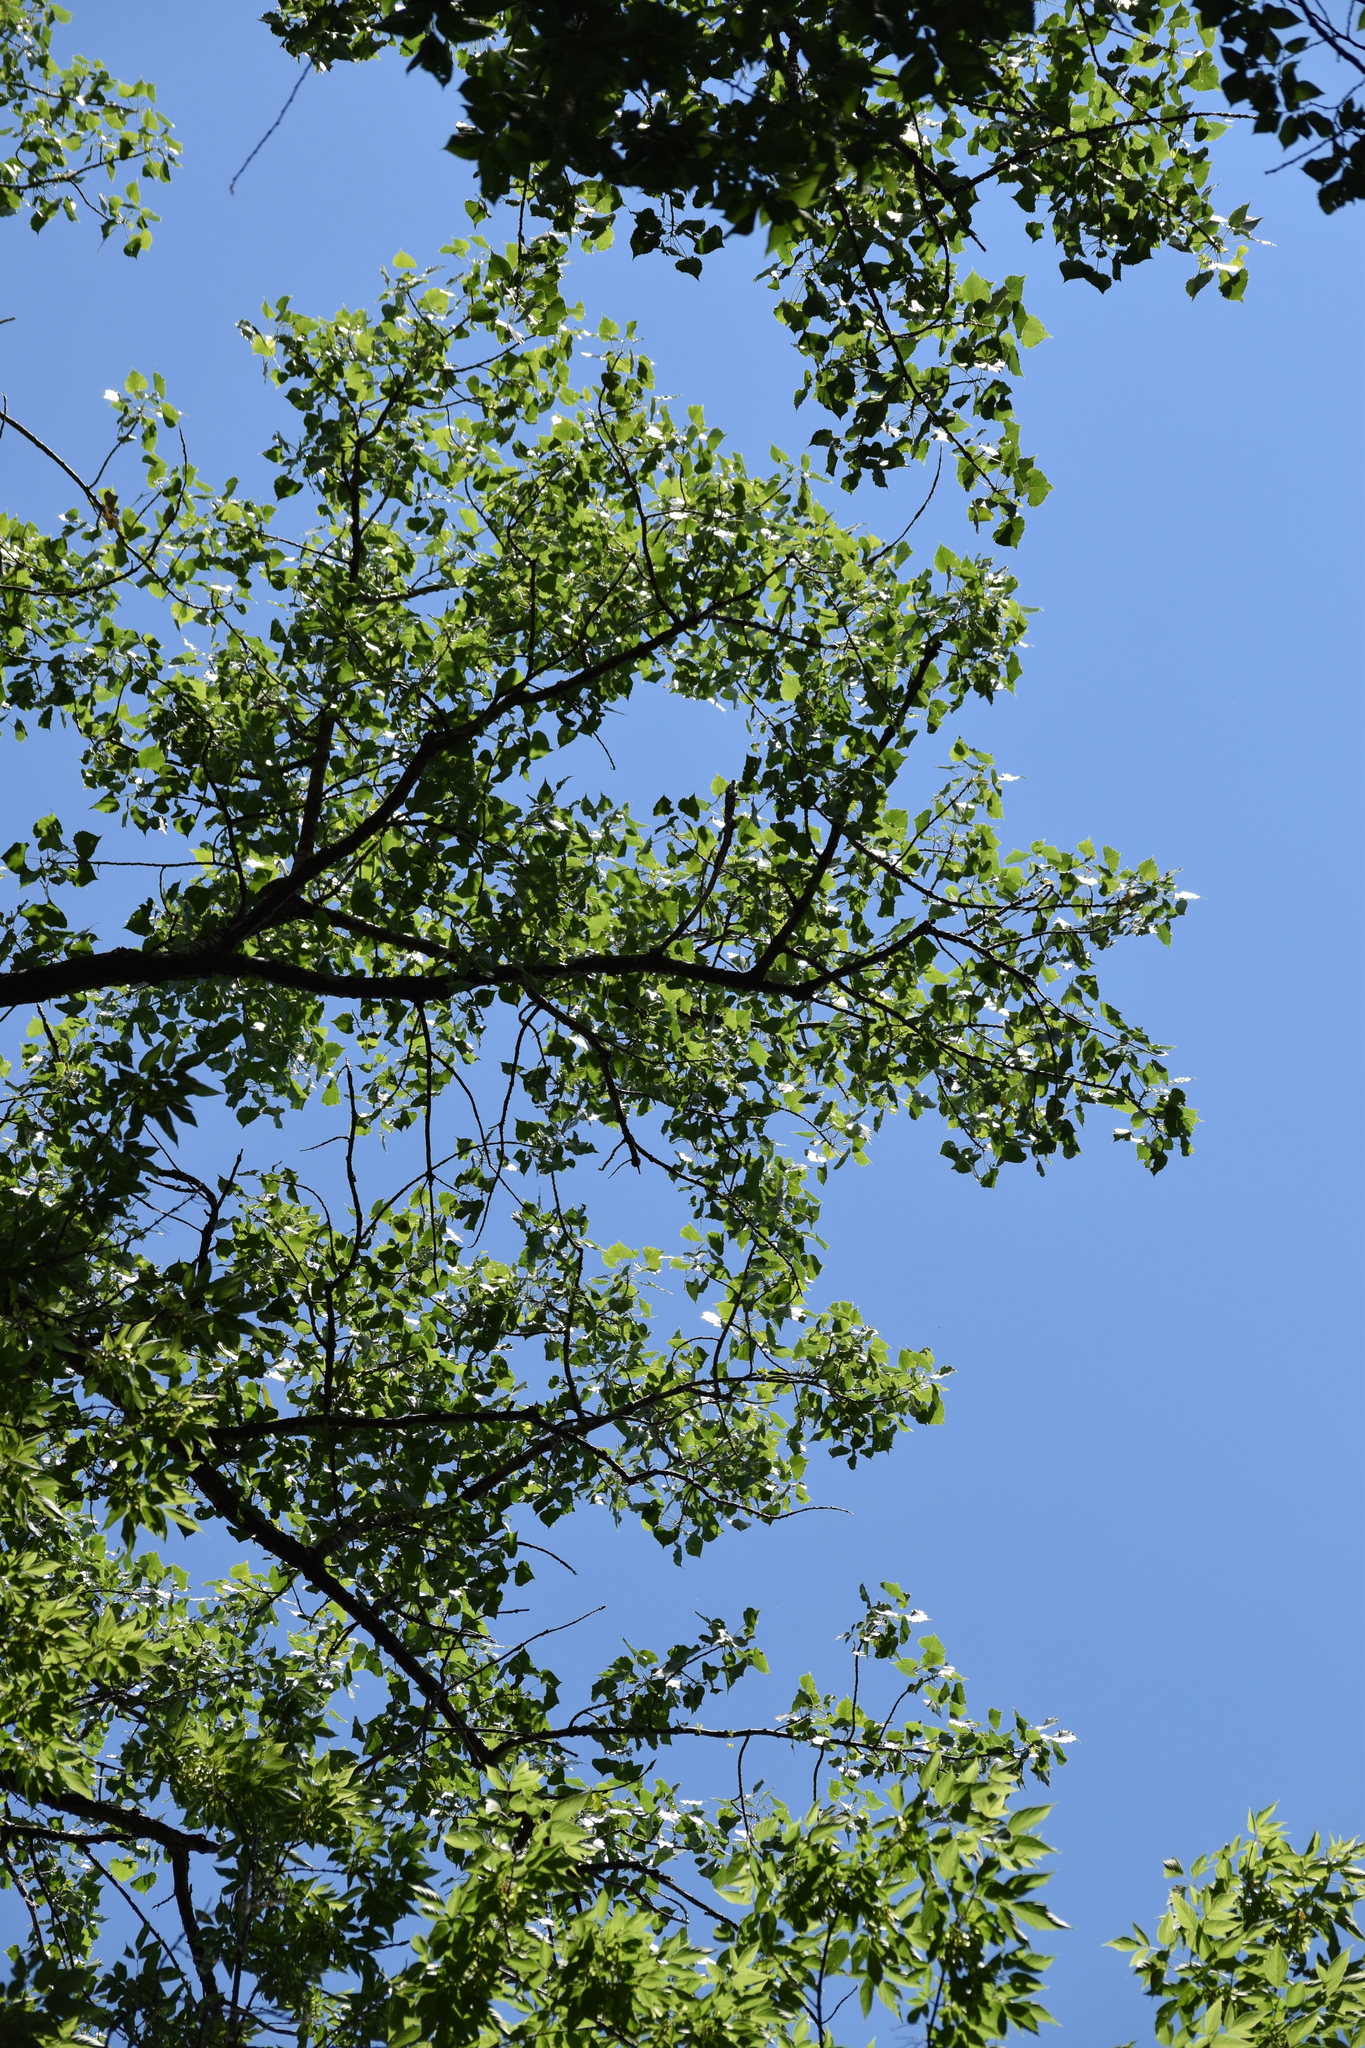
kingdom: Plantae
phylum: Tracheophyta
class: Magnoliopsida
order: Malpighiales
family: Salicaceae
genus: Populus
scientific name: Populus deltoides
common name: Eastern cottonwood
